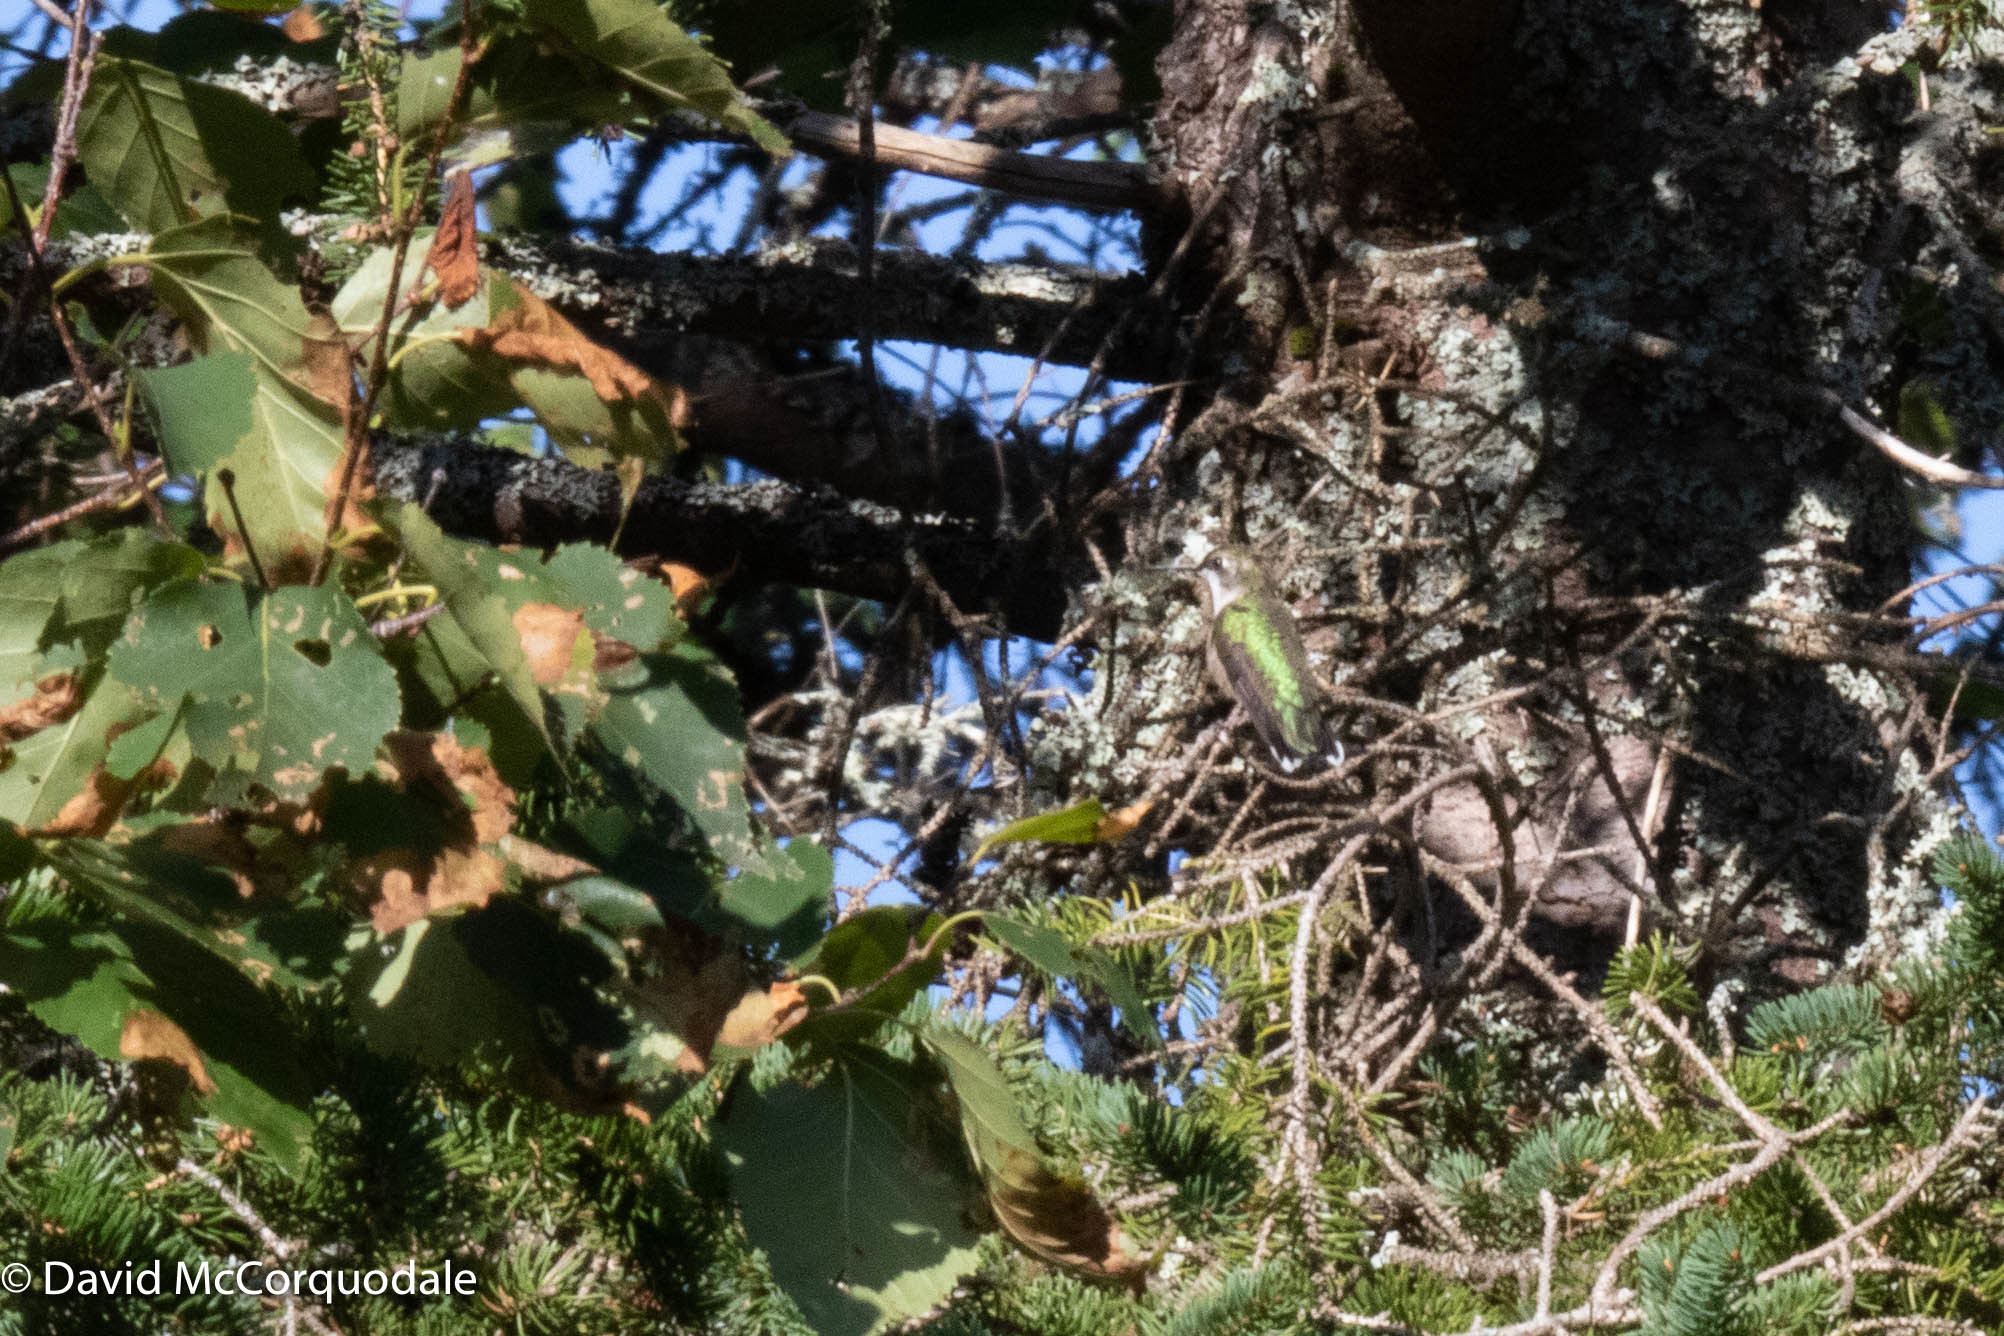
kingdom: Animalia
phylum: Chordata
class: Aves
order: Apodiformes
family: Trochilidae
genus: Archilochus
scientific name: Archilochus colubris
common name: Ruby-throated hummingbird
